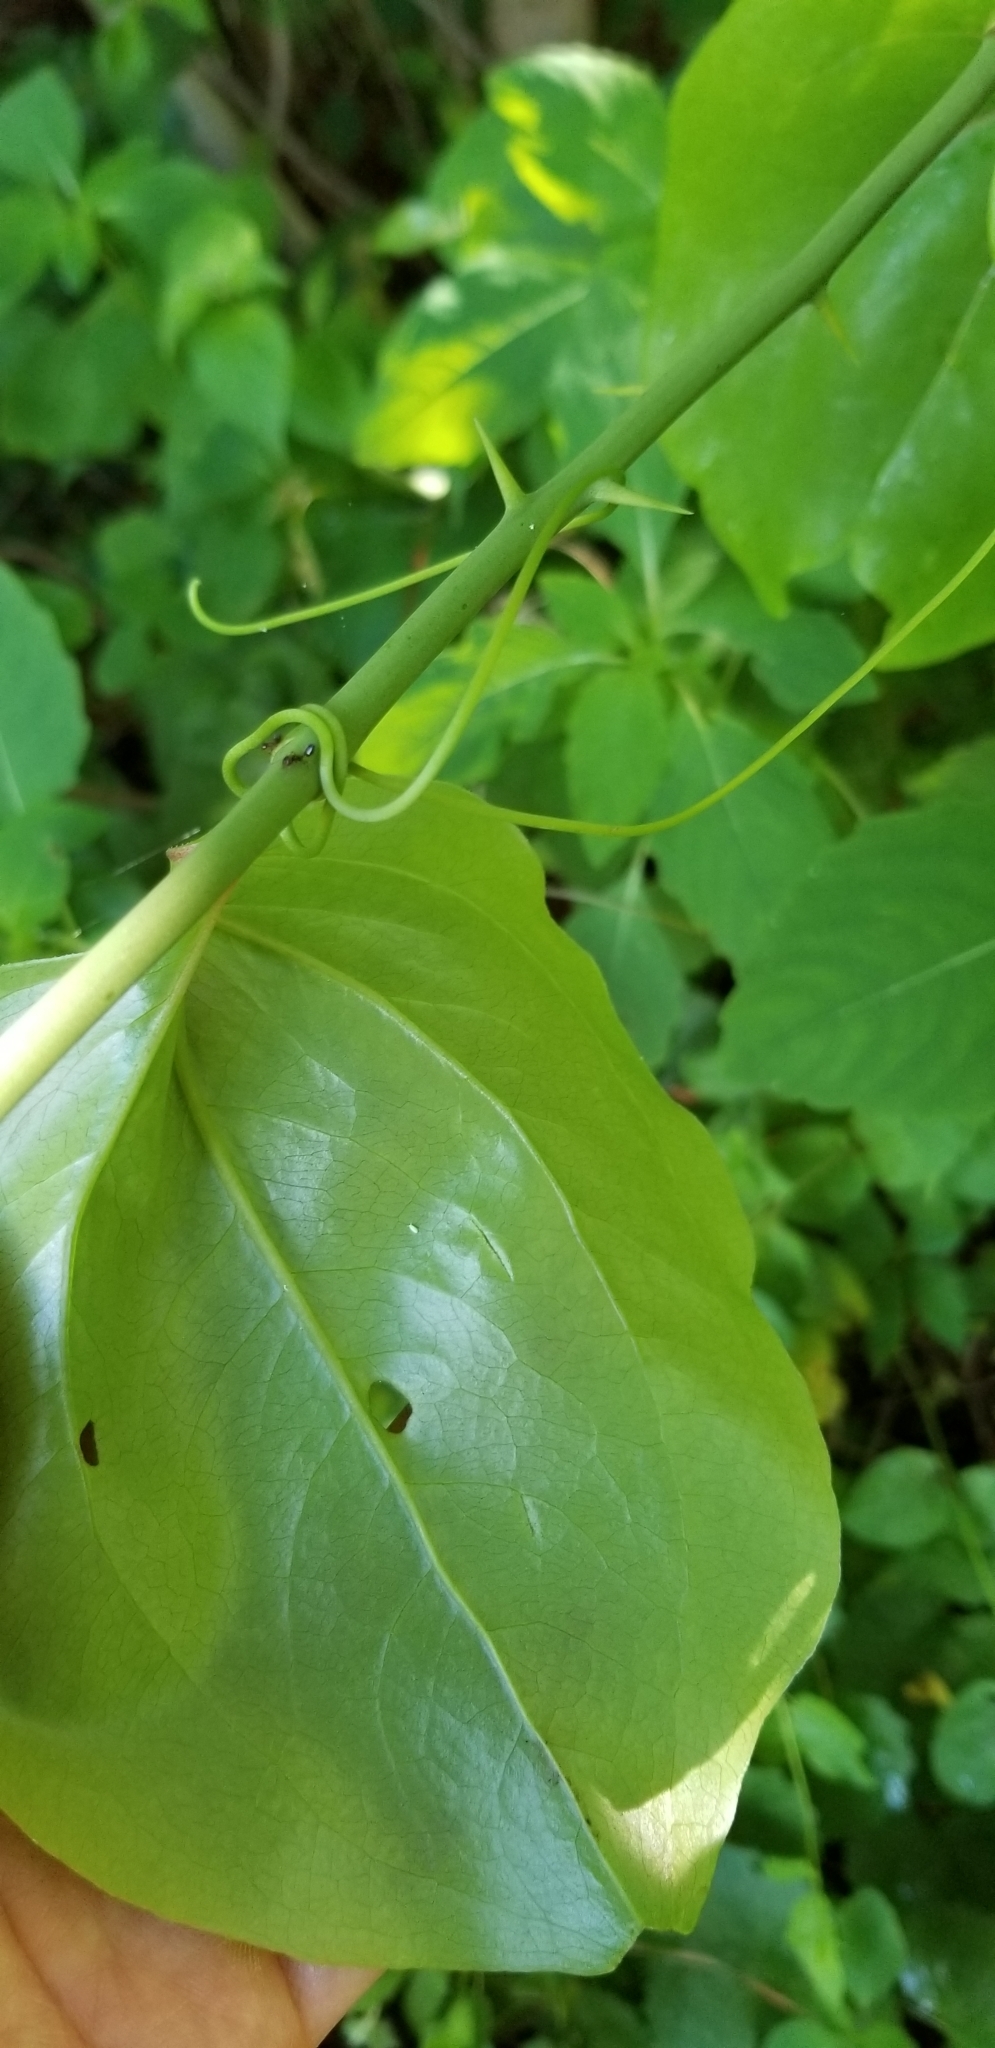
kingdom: Plantae
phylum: Tracheophyta
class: Liliopsida
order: Liliales
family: Smilacaceae
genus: Smilax
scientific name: Smilax rotundifolia
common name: Bullbriar
